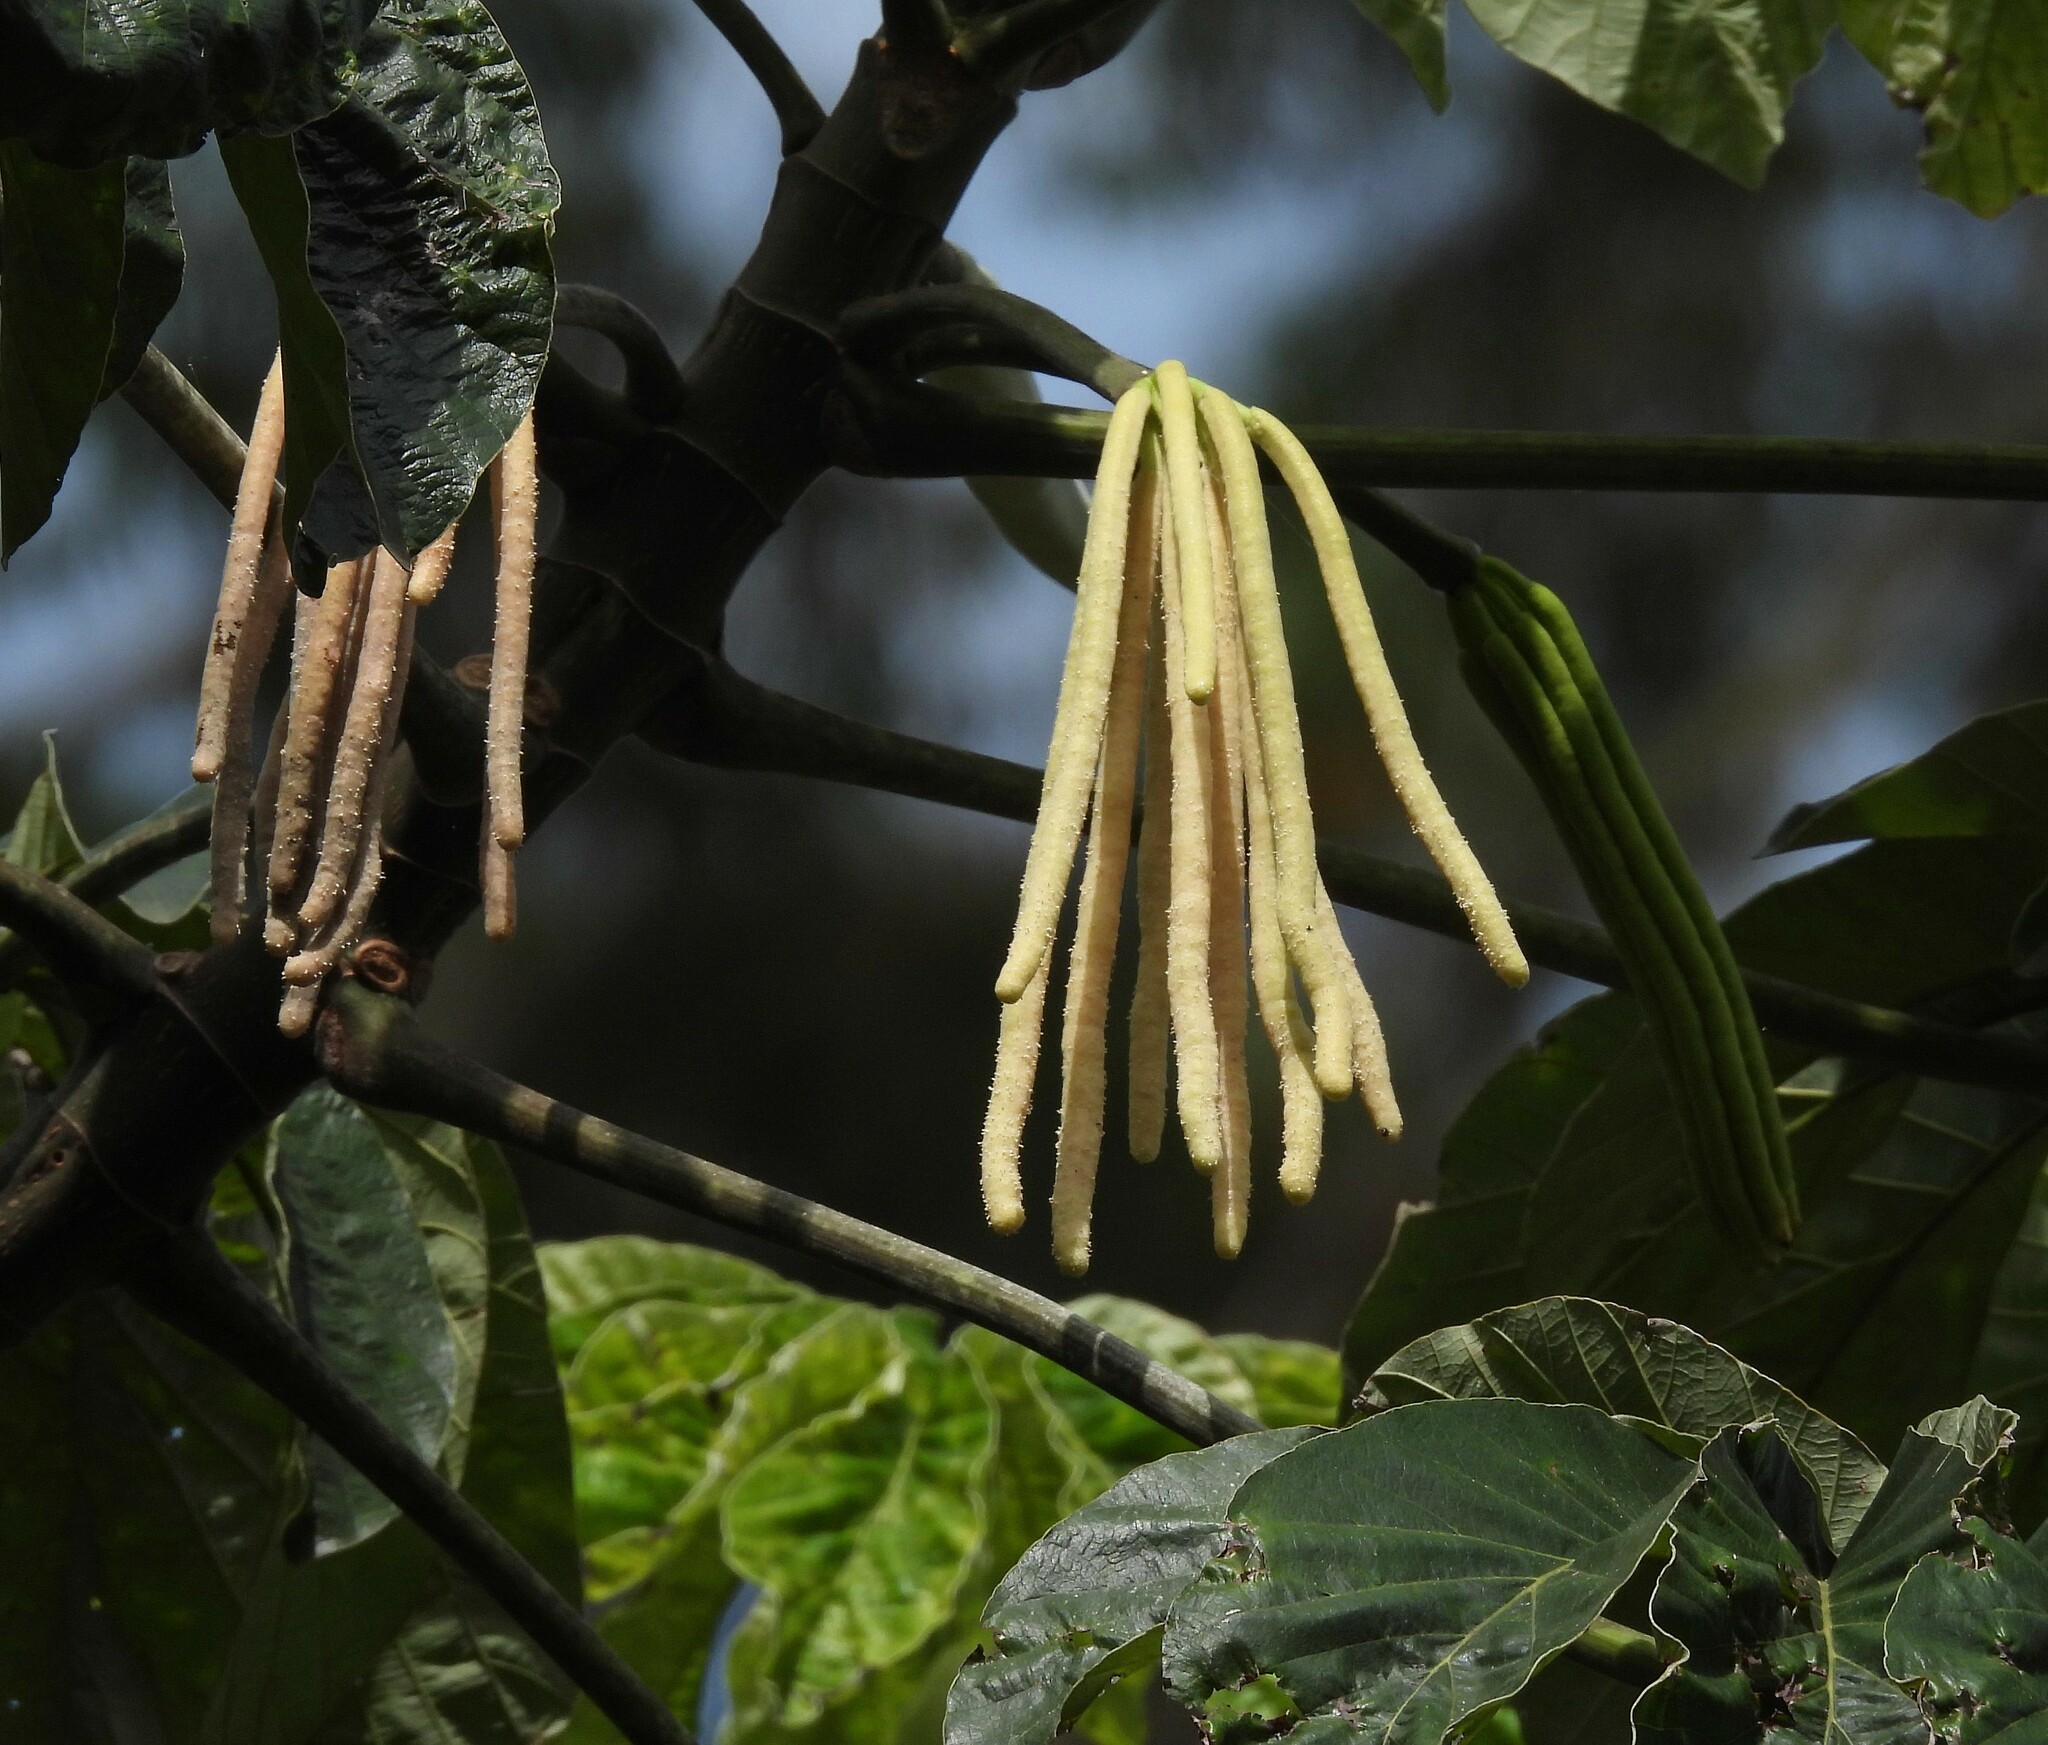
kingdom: Plantae
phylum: Tracheophyta
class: Magnoliopsida
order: Rosales
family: Urticaceae
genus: Cecropia
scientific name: Cecropia pachystachya
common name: Ambay pumpwood
